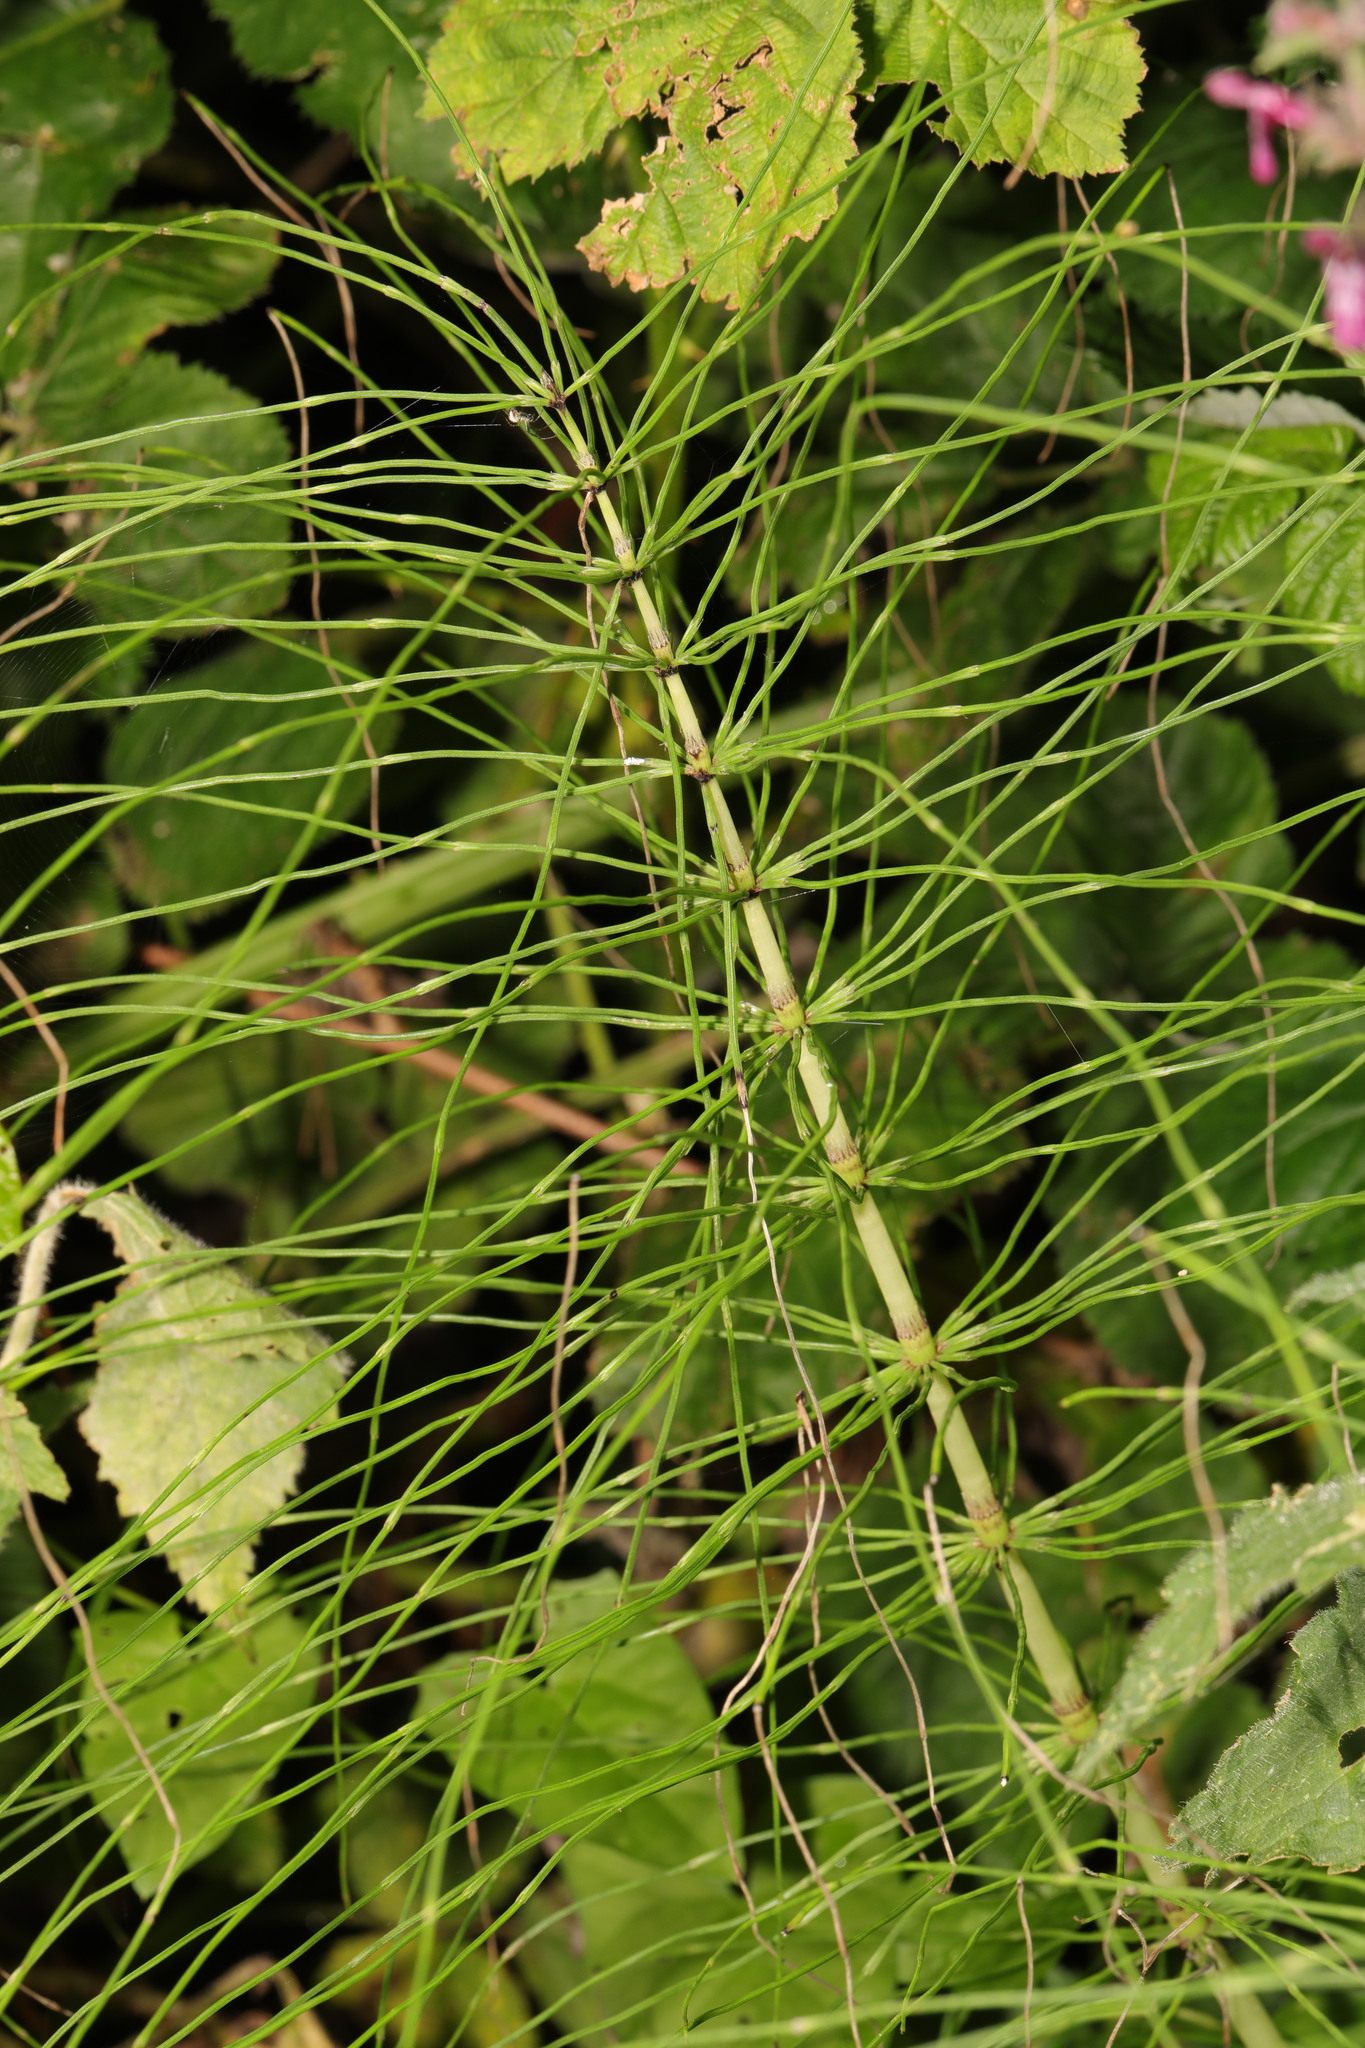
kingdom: Plantae
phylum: Tracheophyta
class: Polypodiopsida
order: Equisetales
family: Equisetaceae
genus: Equisetum
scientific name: Equisetum sylvaticum
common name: Wood horsetail
